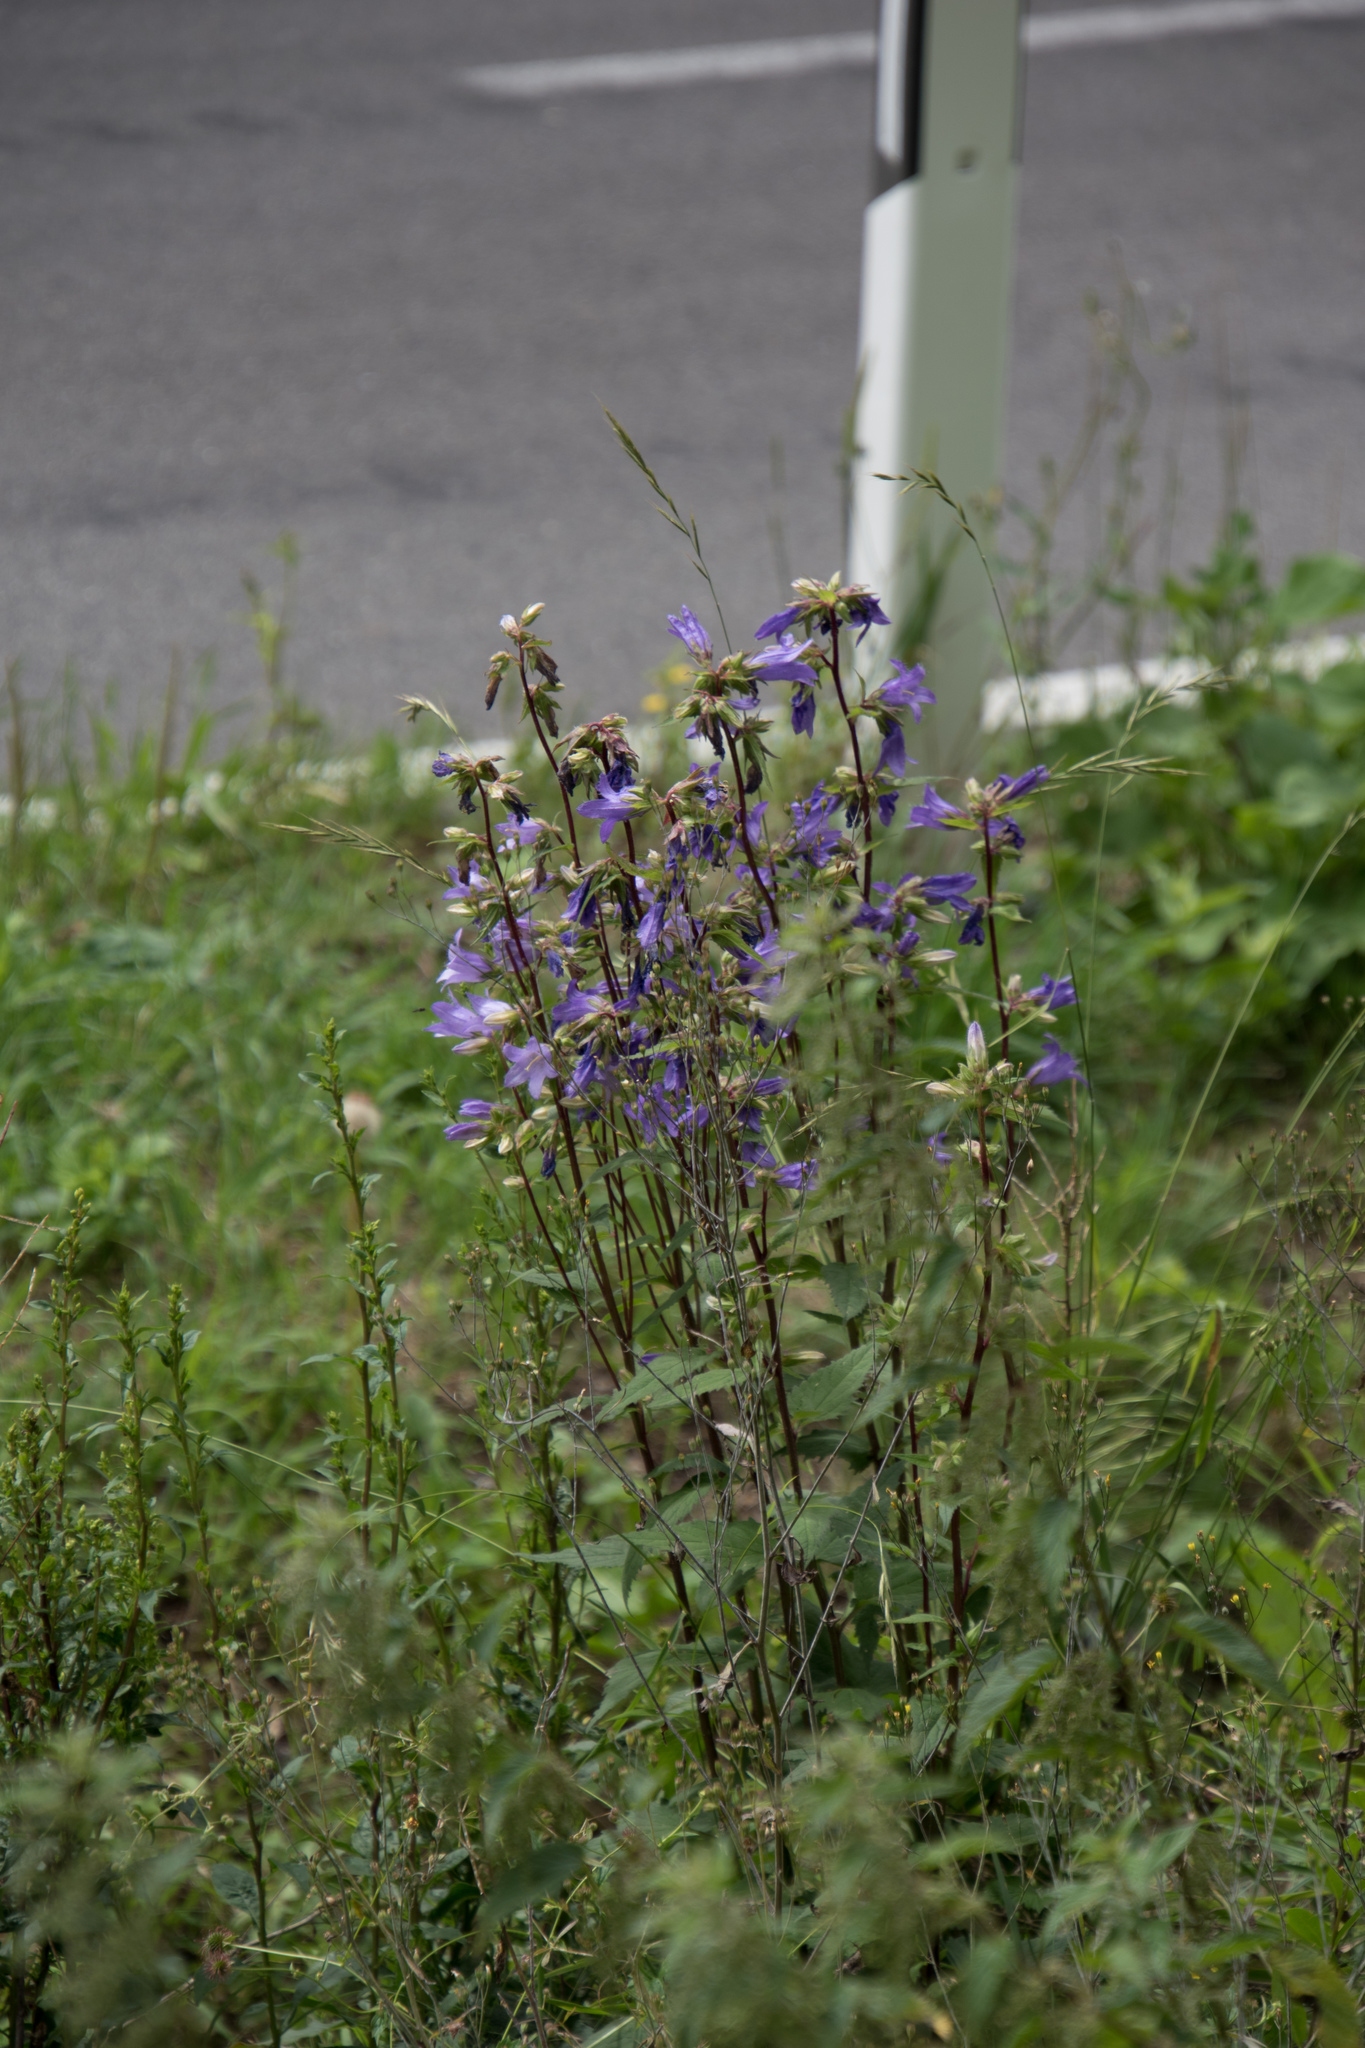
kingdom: Plantae
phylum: Tracheophyta
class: Magnoliopsida
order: Asterales
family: Campanulaceae
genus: Campanula
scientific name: Campanula trachelium
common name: Nettle-leaved bellflower
